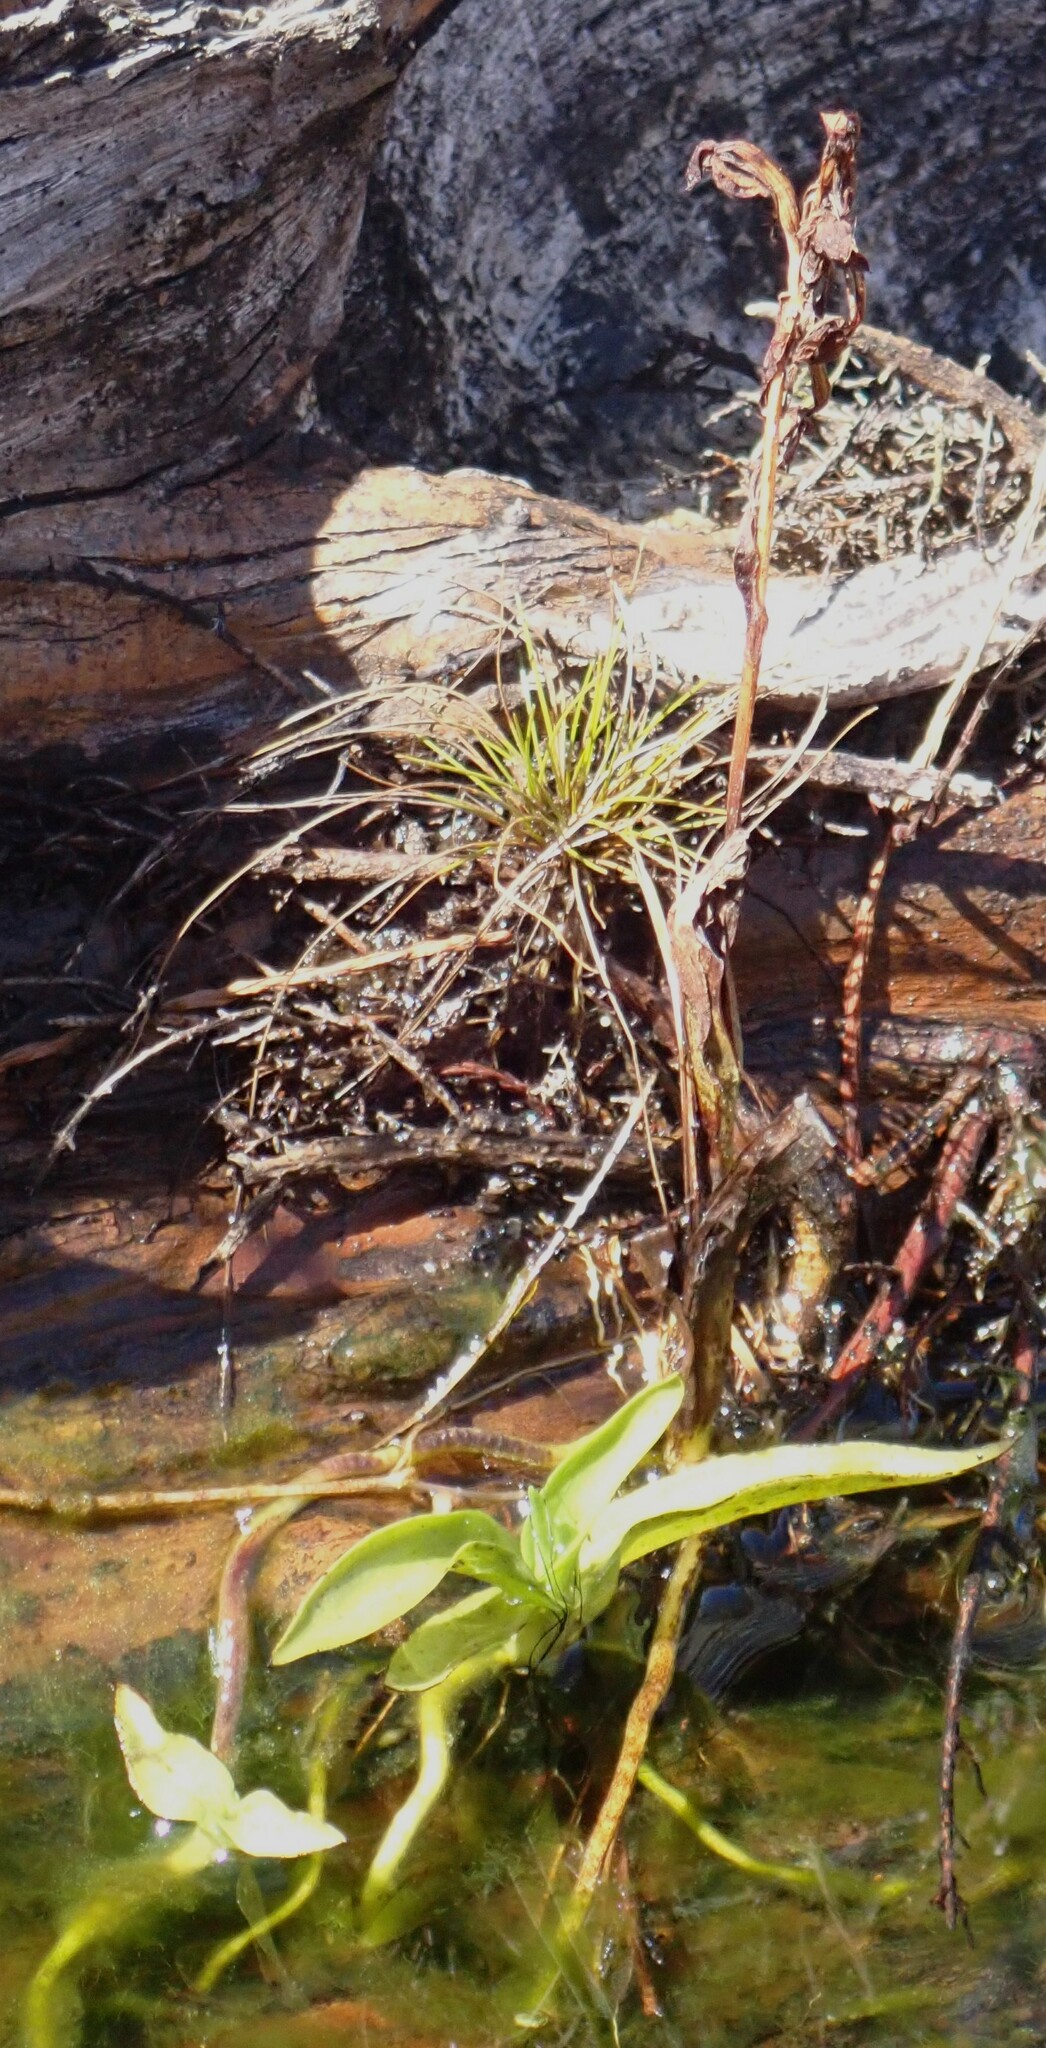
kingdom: Plantae
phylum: Tracheophyta
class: Liliopsida
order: Asparagales
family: Orchidaceae
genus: Habenaria
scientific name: Habenaria repens
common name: Water orchid
